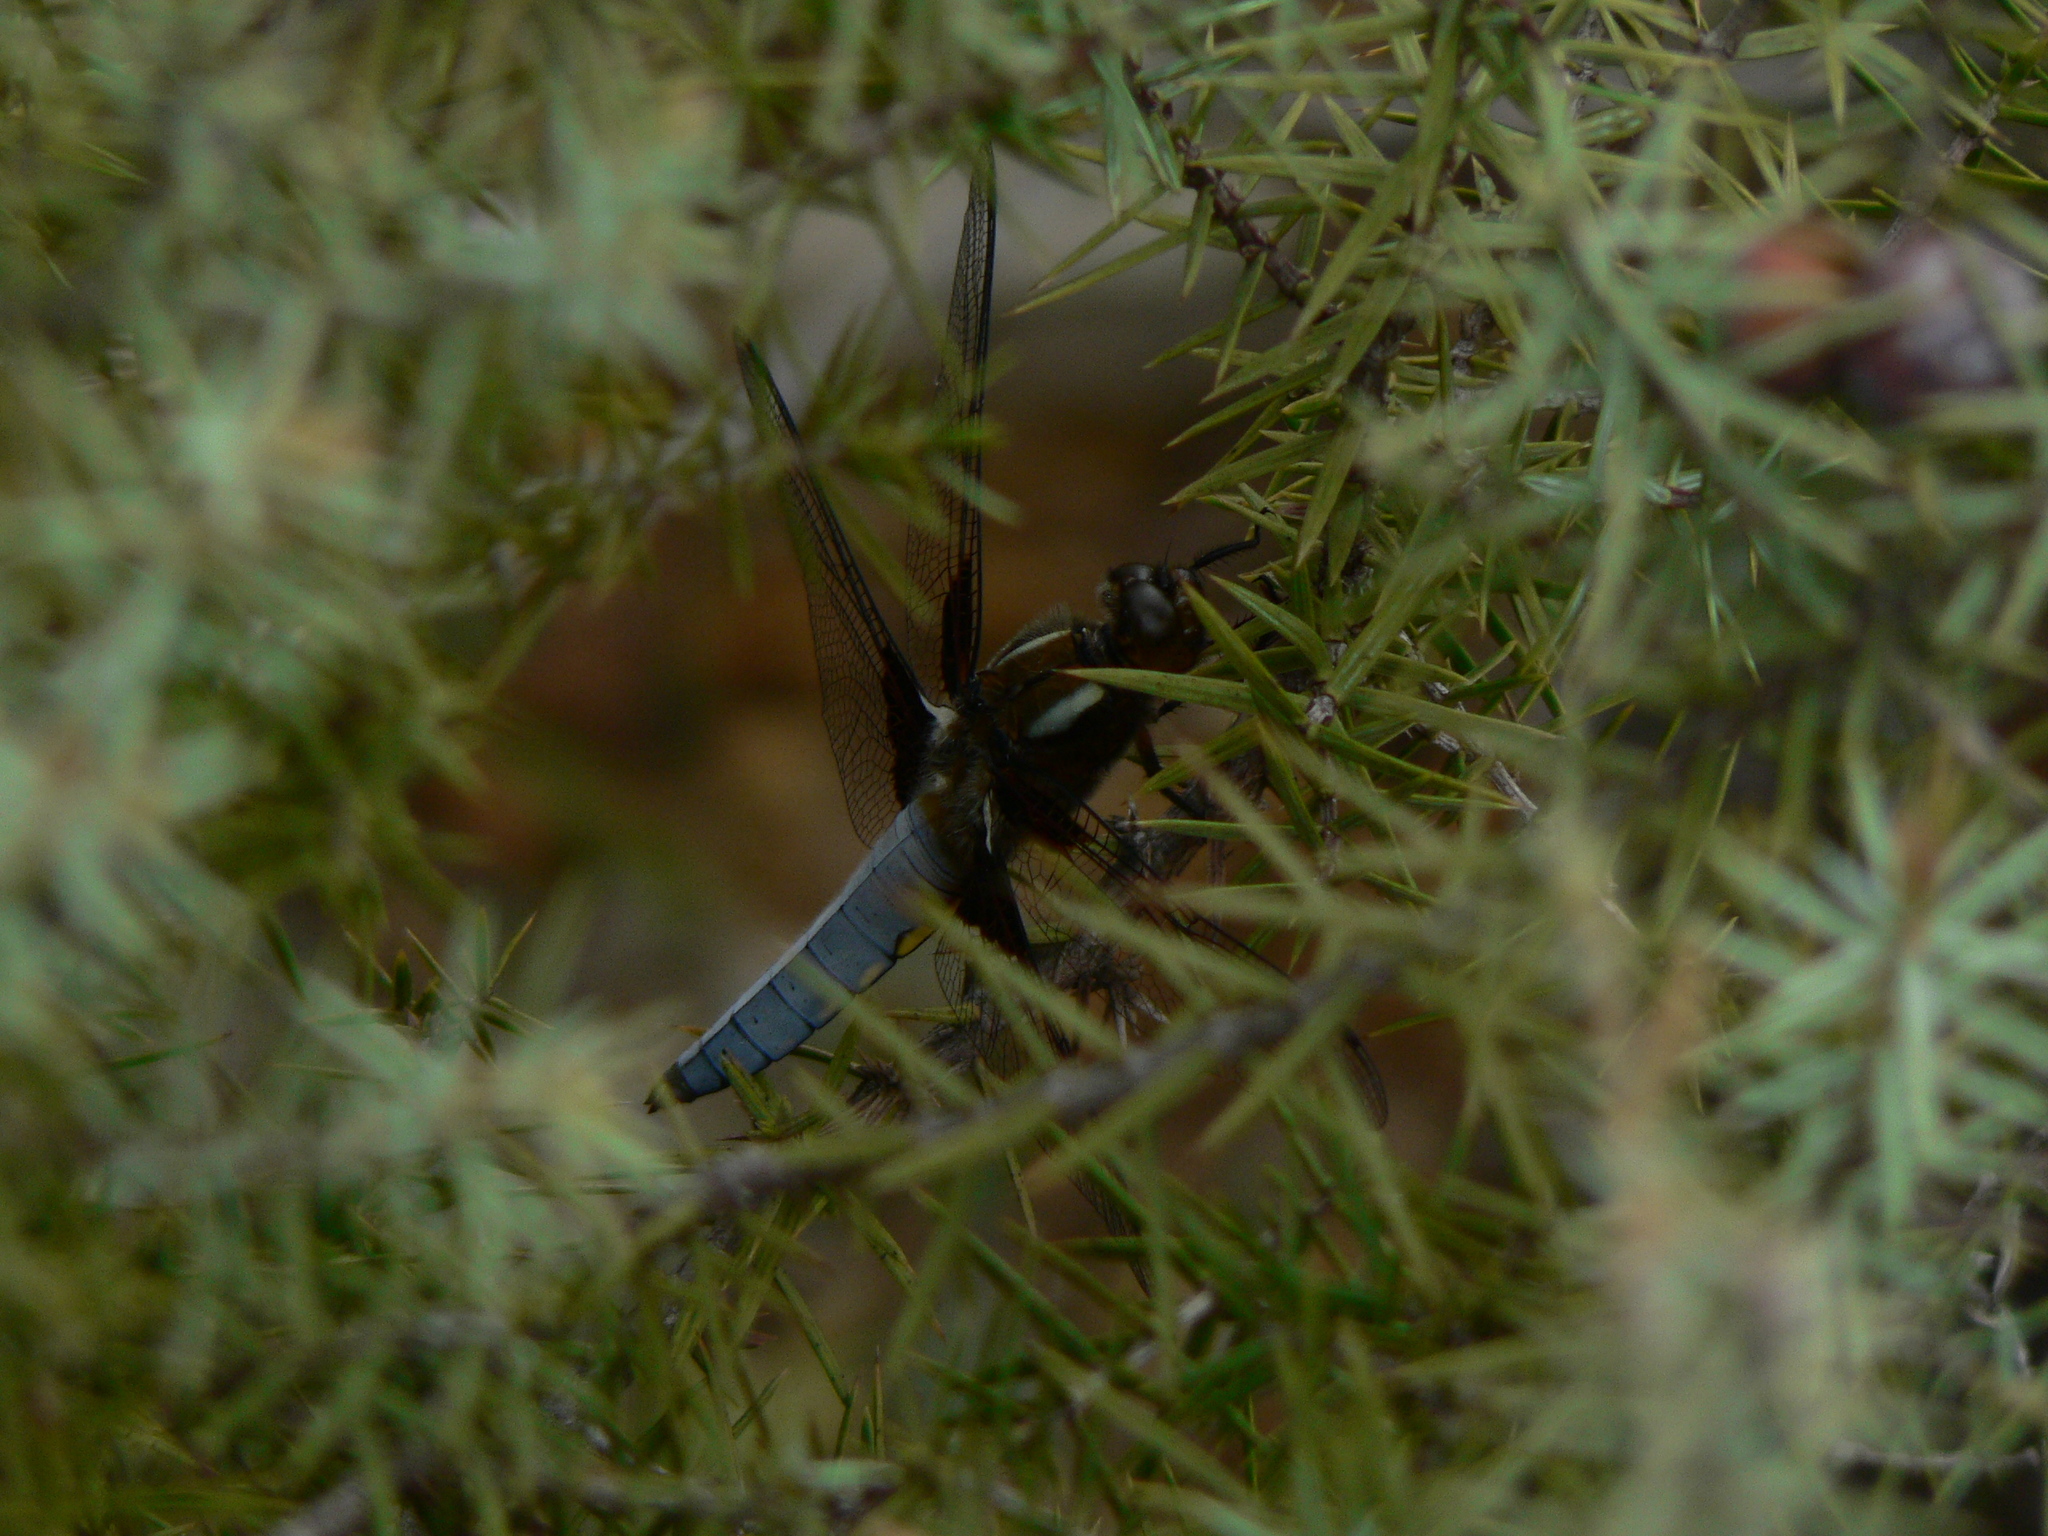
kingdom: Animalia
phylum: Arthropoda
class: Insecta
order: Odonata
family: Libellulidae
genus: Libellula
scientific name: Libellula depressa
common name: Broad-bodied chaser
